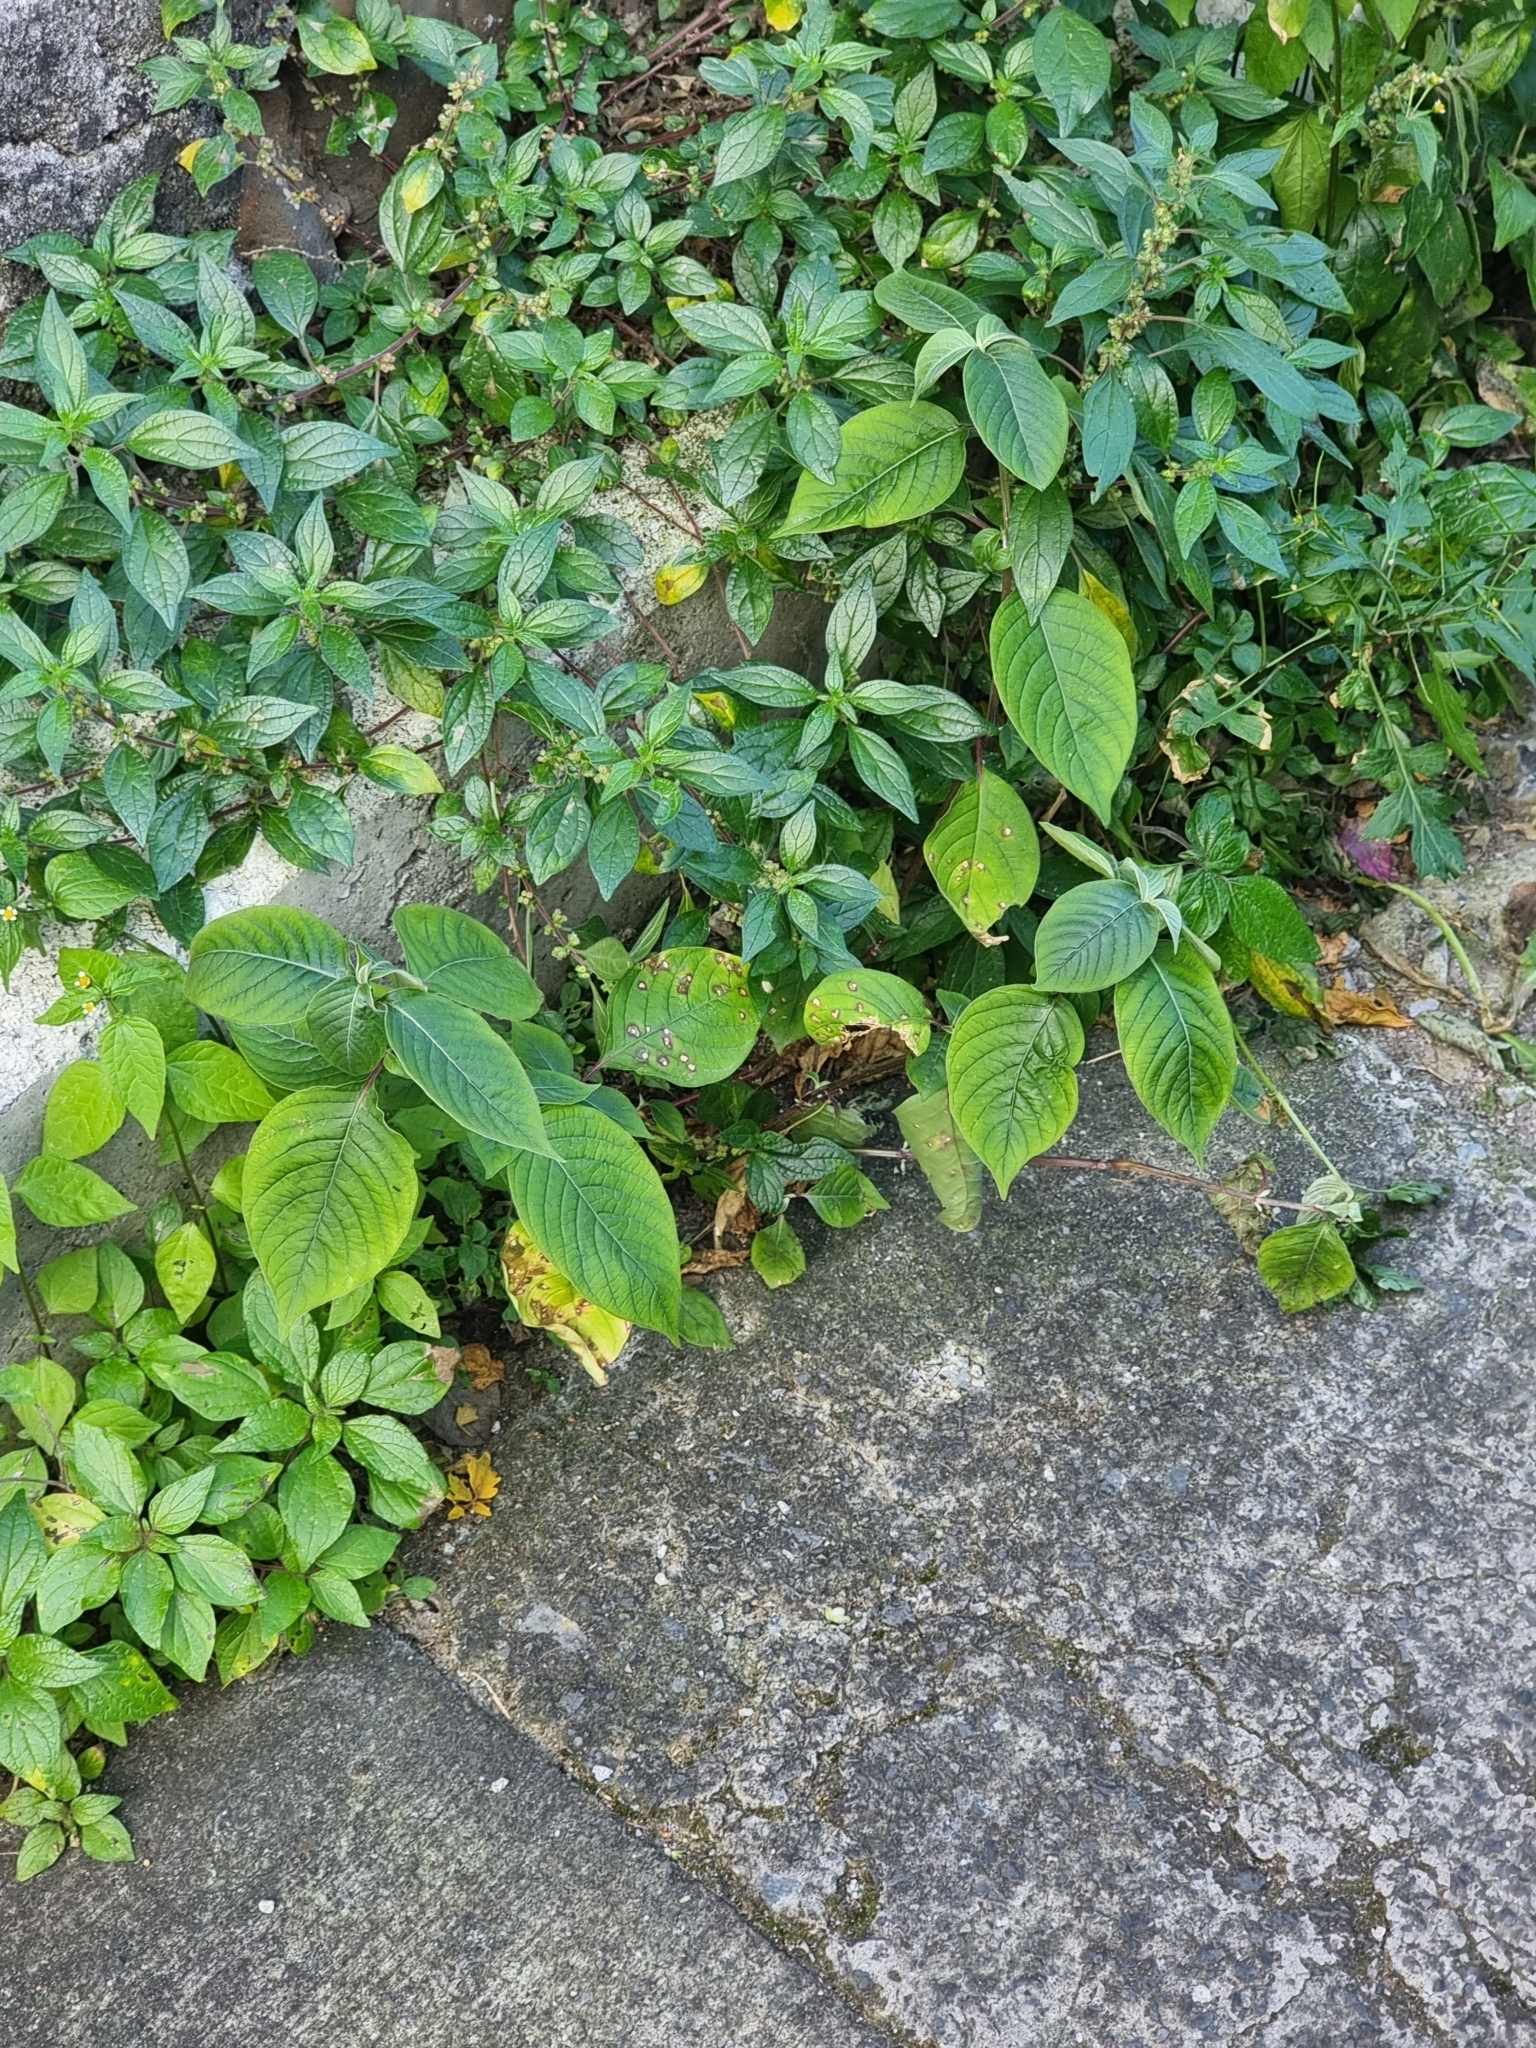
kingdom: Plantae
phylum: Tracheophyta
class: Magnoliopsida
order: Caryophyllales
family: Amaranthaceae
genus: Achyranthes
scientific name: Achyranthes aspera
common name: Devil's horsewhip
